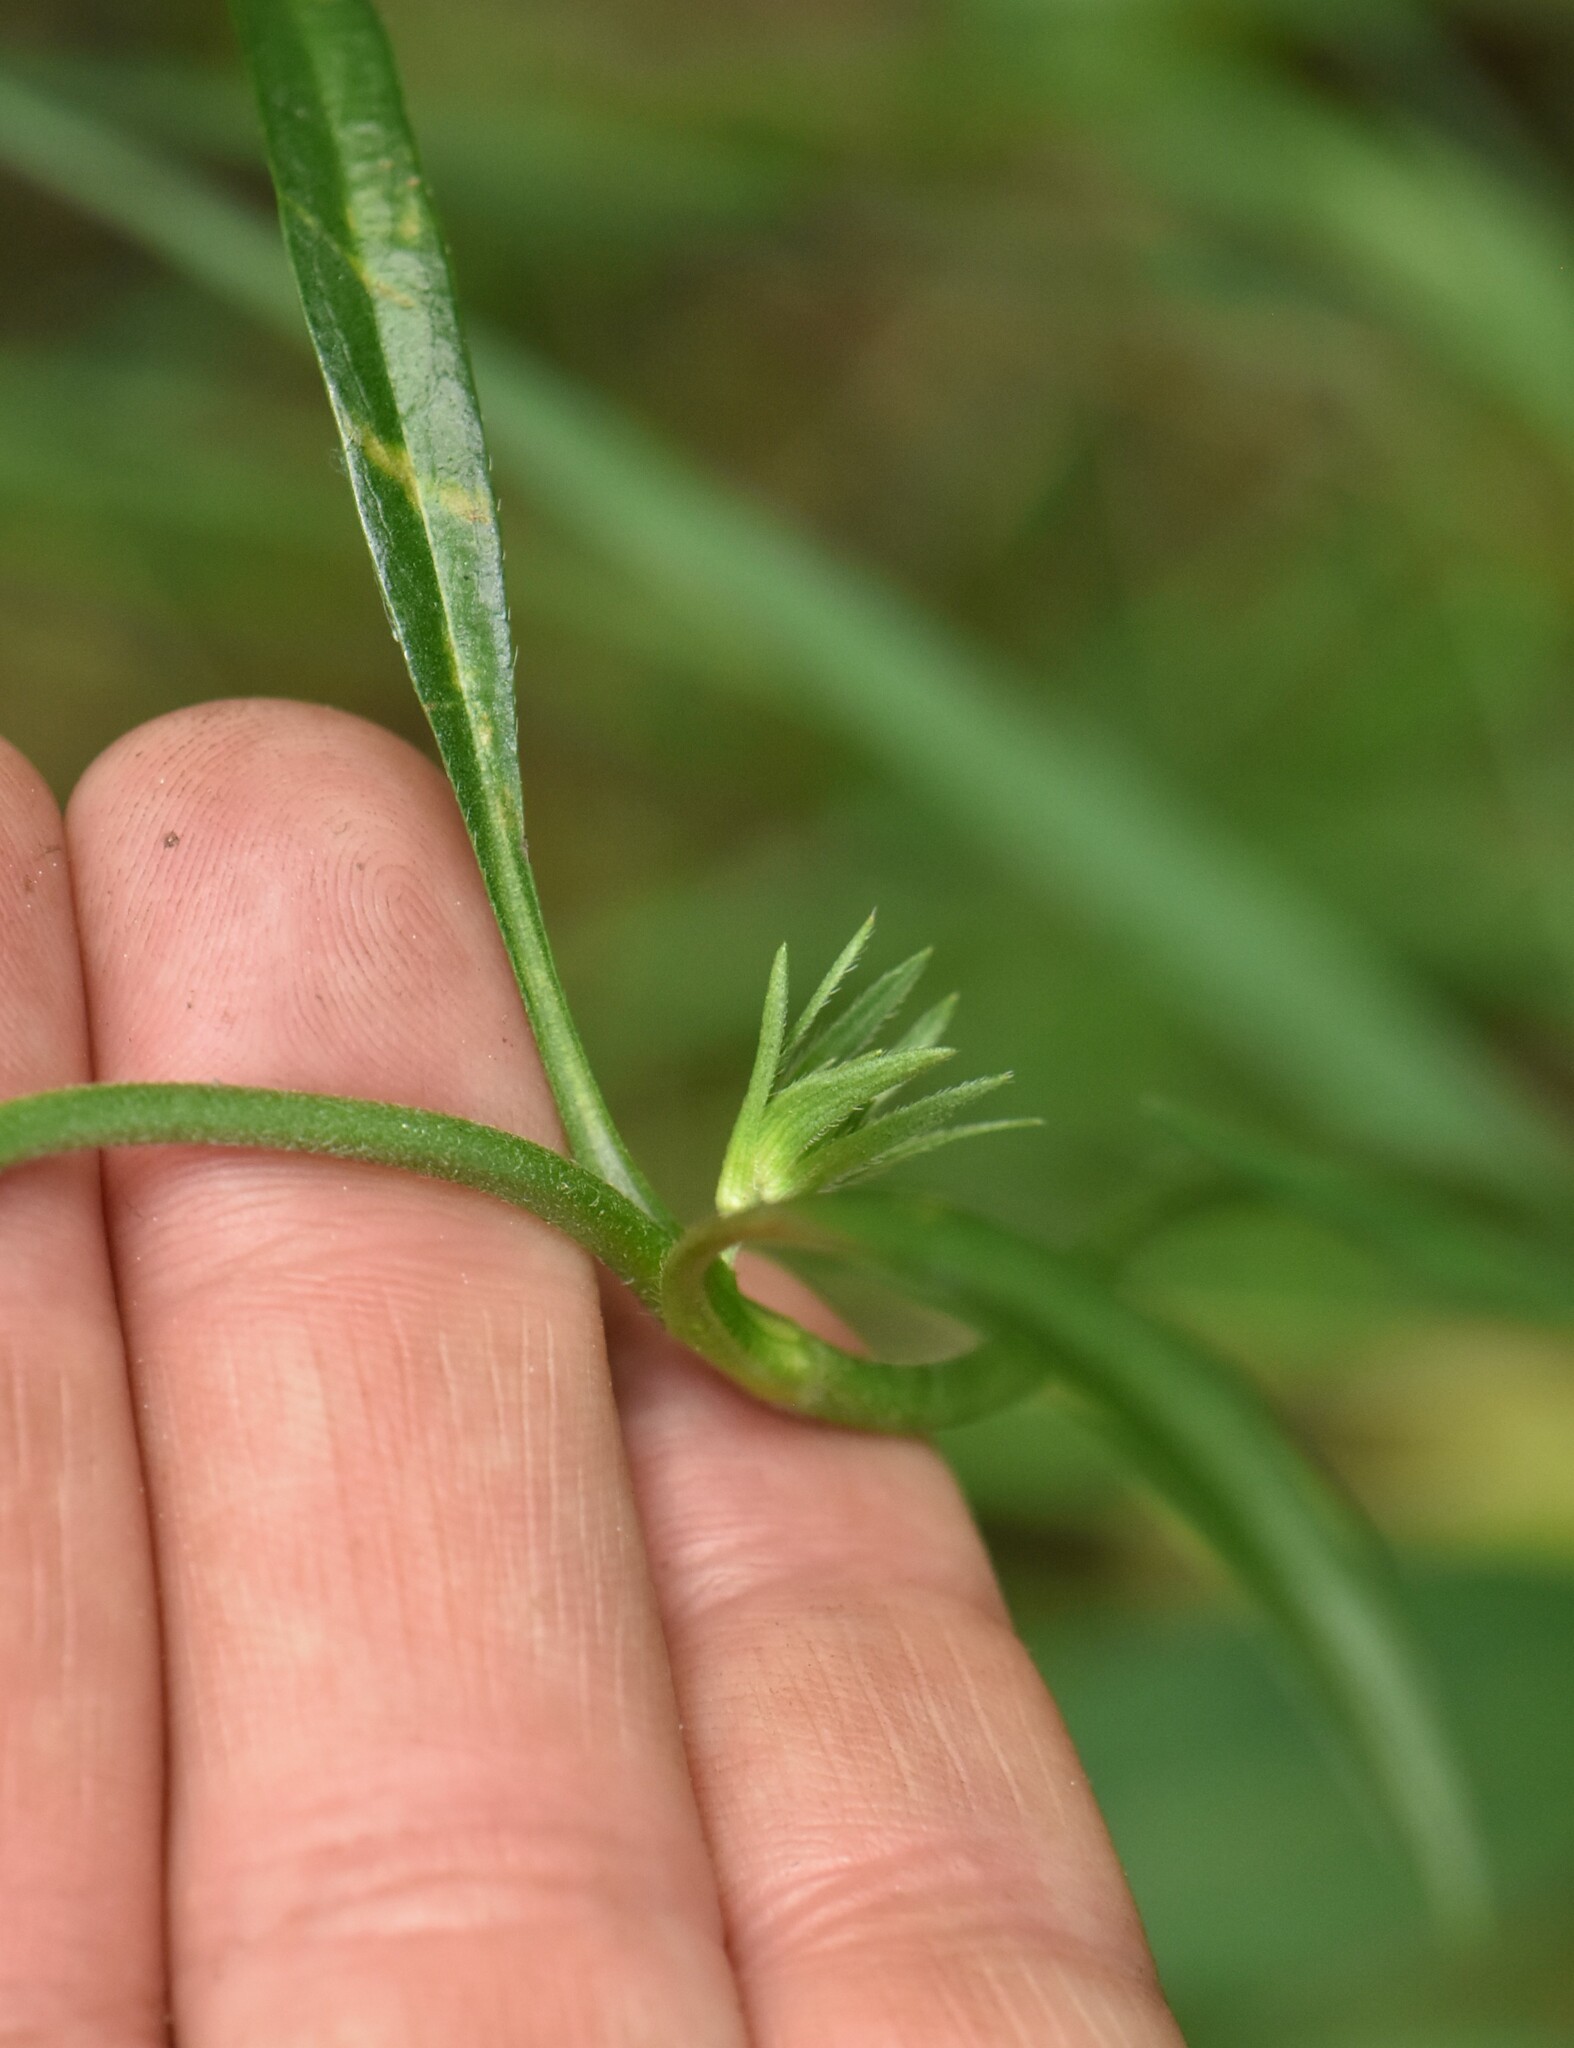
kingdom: Plantae
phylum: Tracheophyta
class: Magnoliopsida
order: Dipsacales
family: Caprifoliaceae
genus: Succisa
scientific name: Succisa pratensis
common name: Devil's-bit
